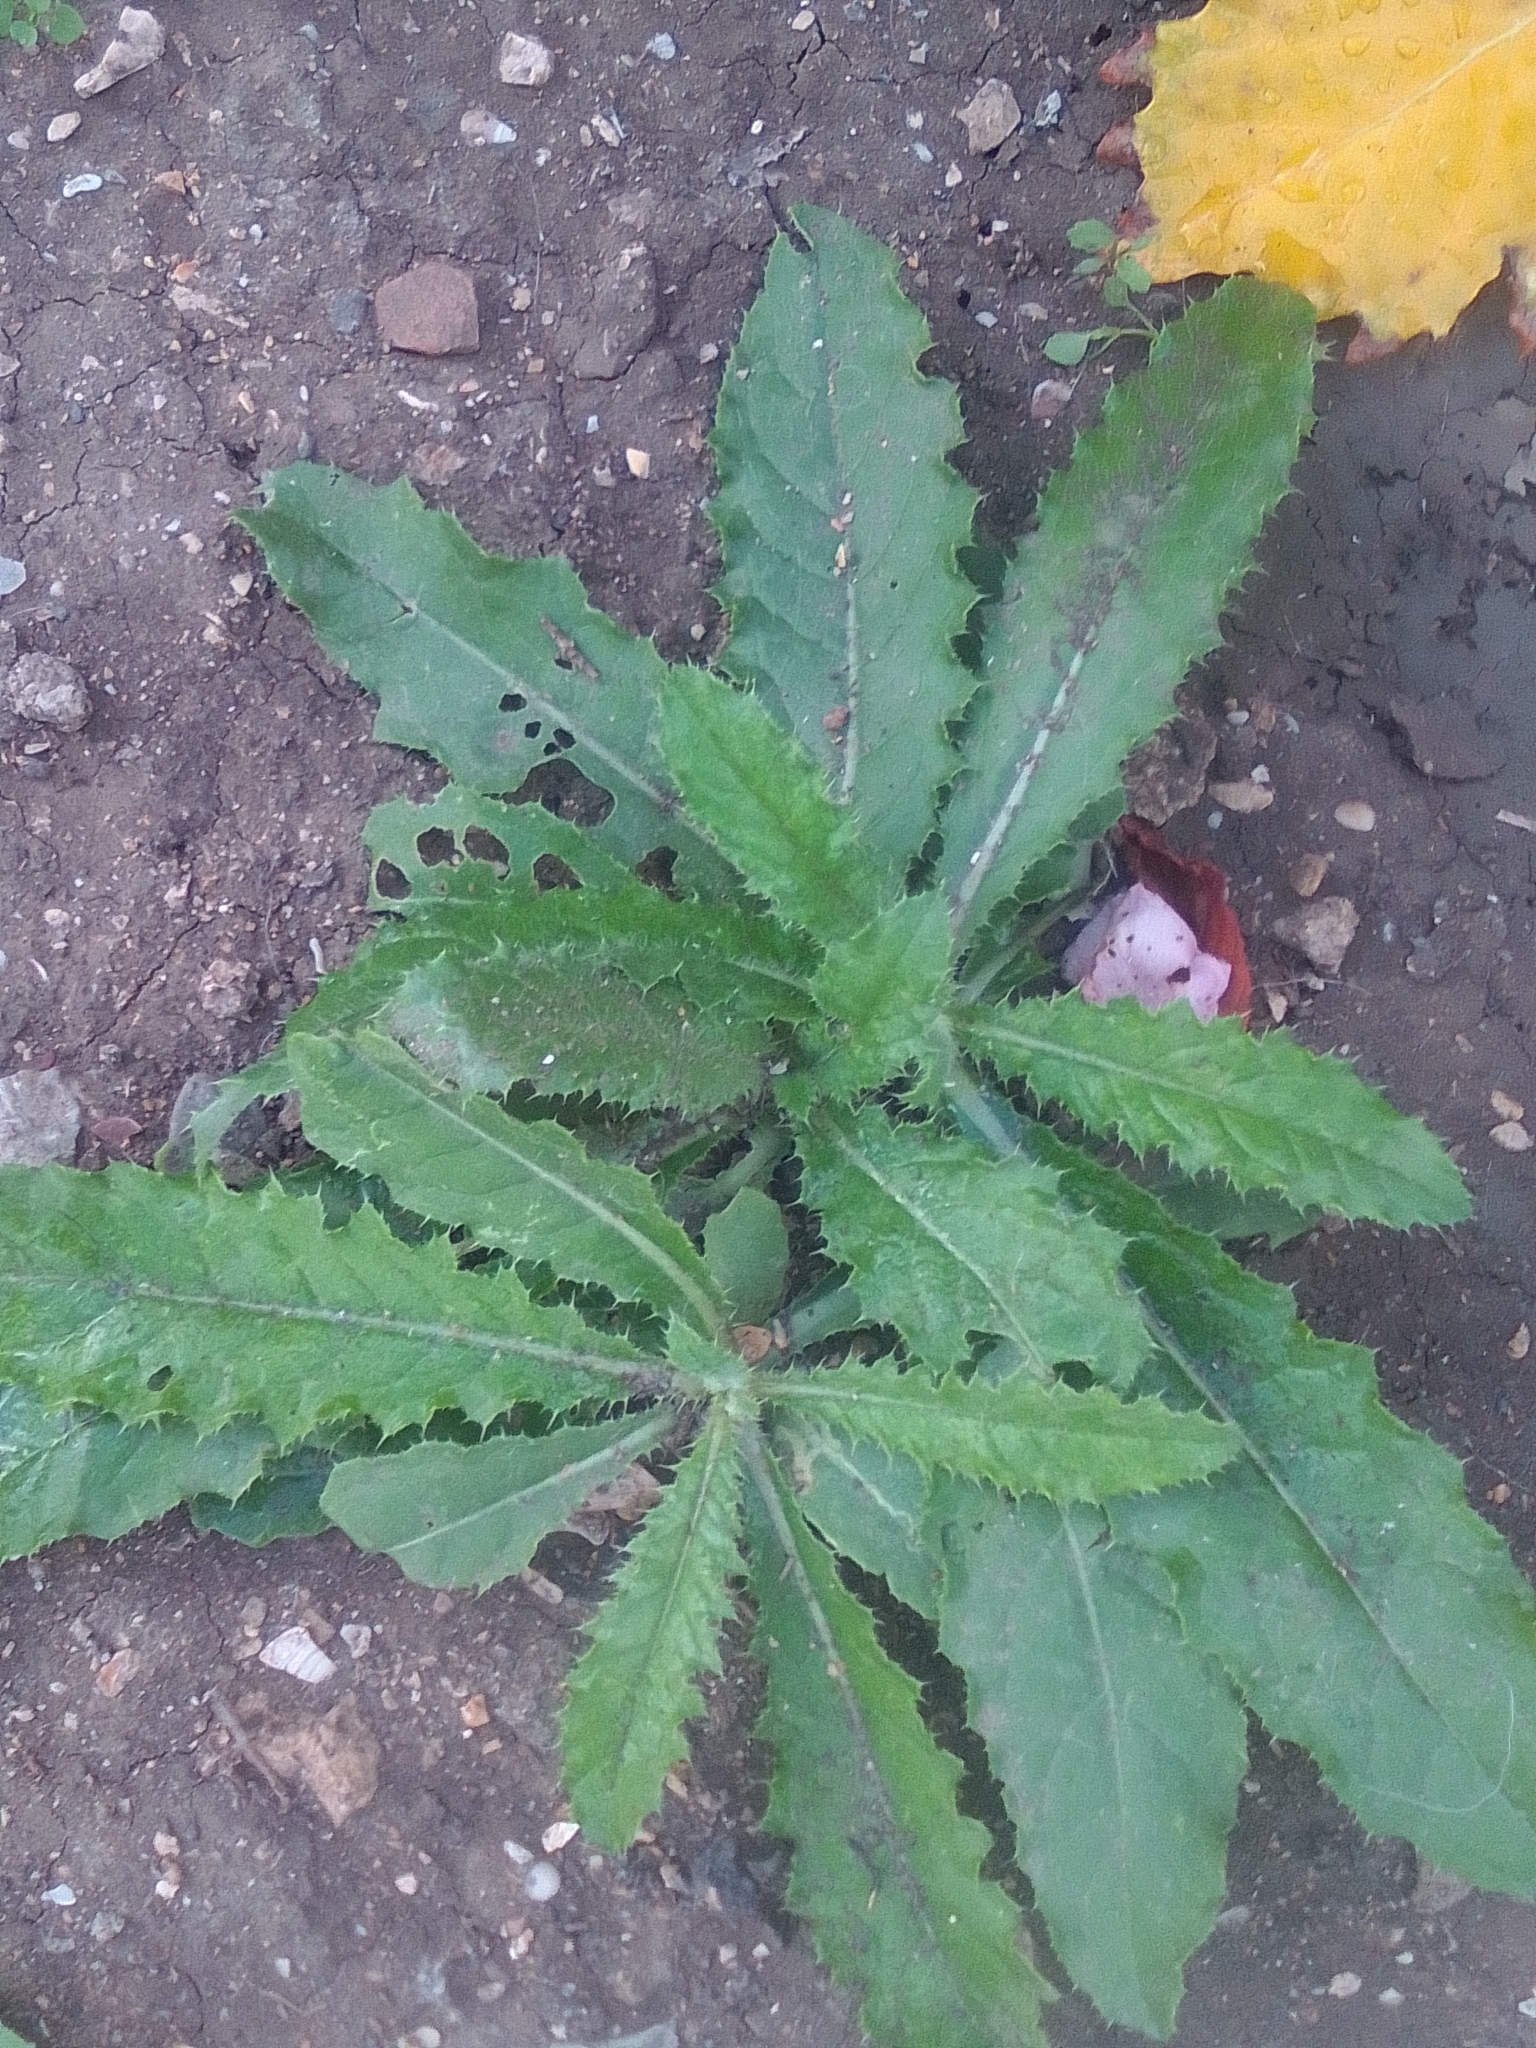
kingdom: Plantae
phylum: Tracheophyta
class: Magnoliopsida
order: Asterales
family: Asteraceae
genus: Cirsium
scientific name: Cirsium arvense
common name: Creeping thistle
